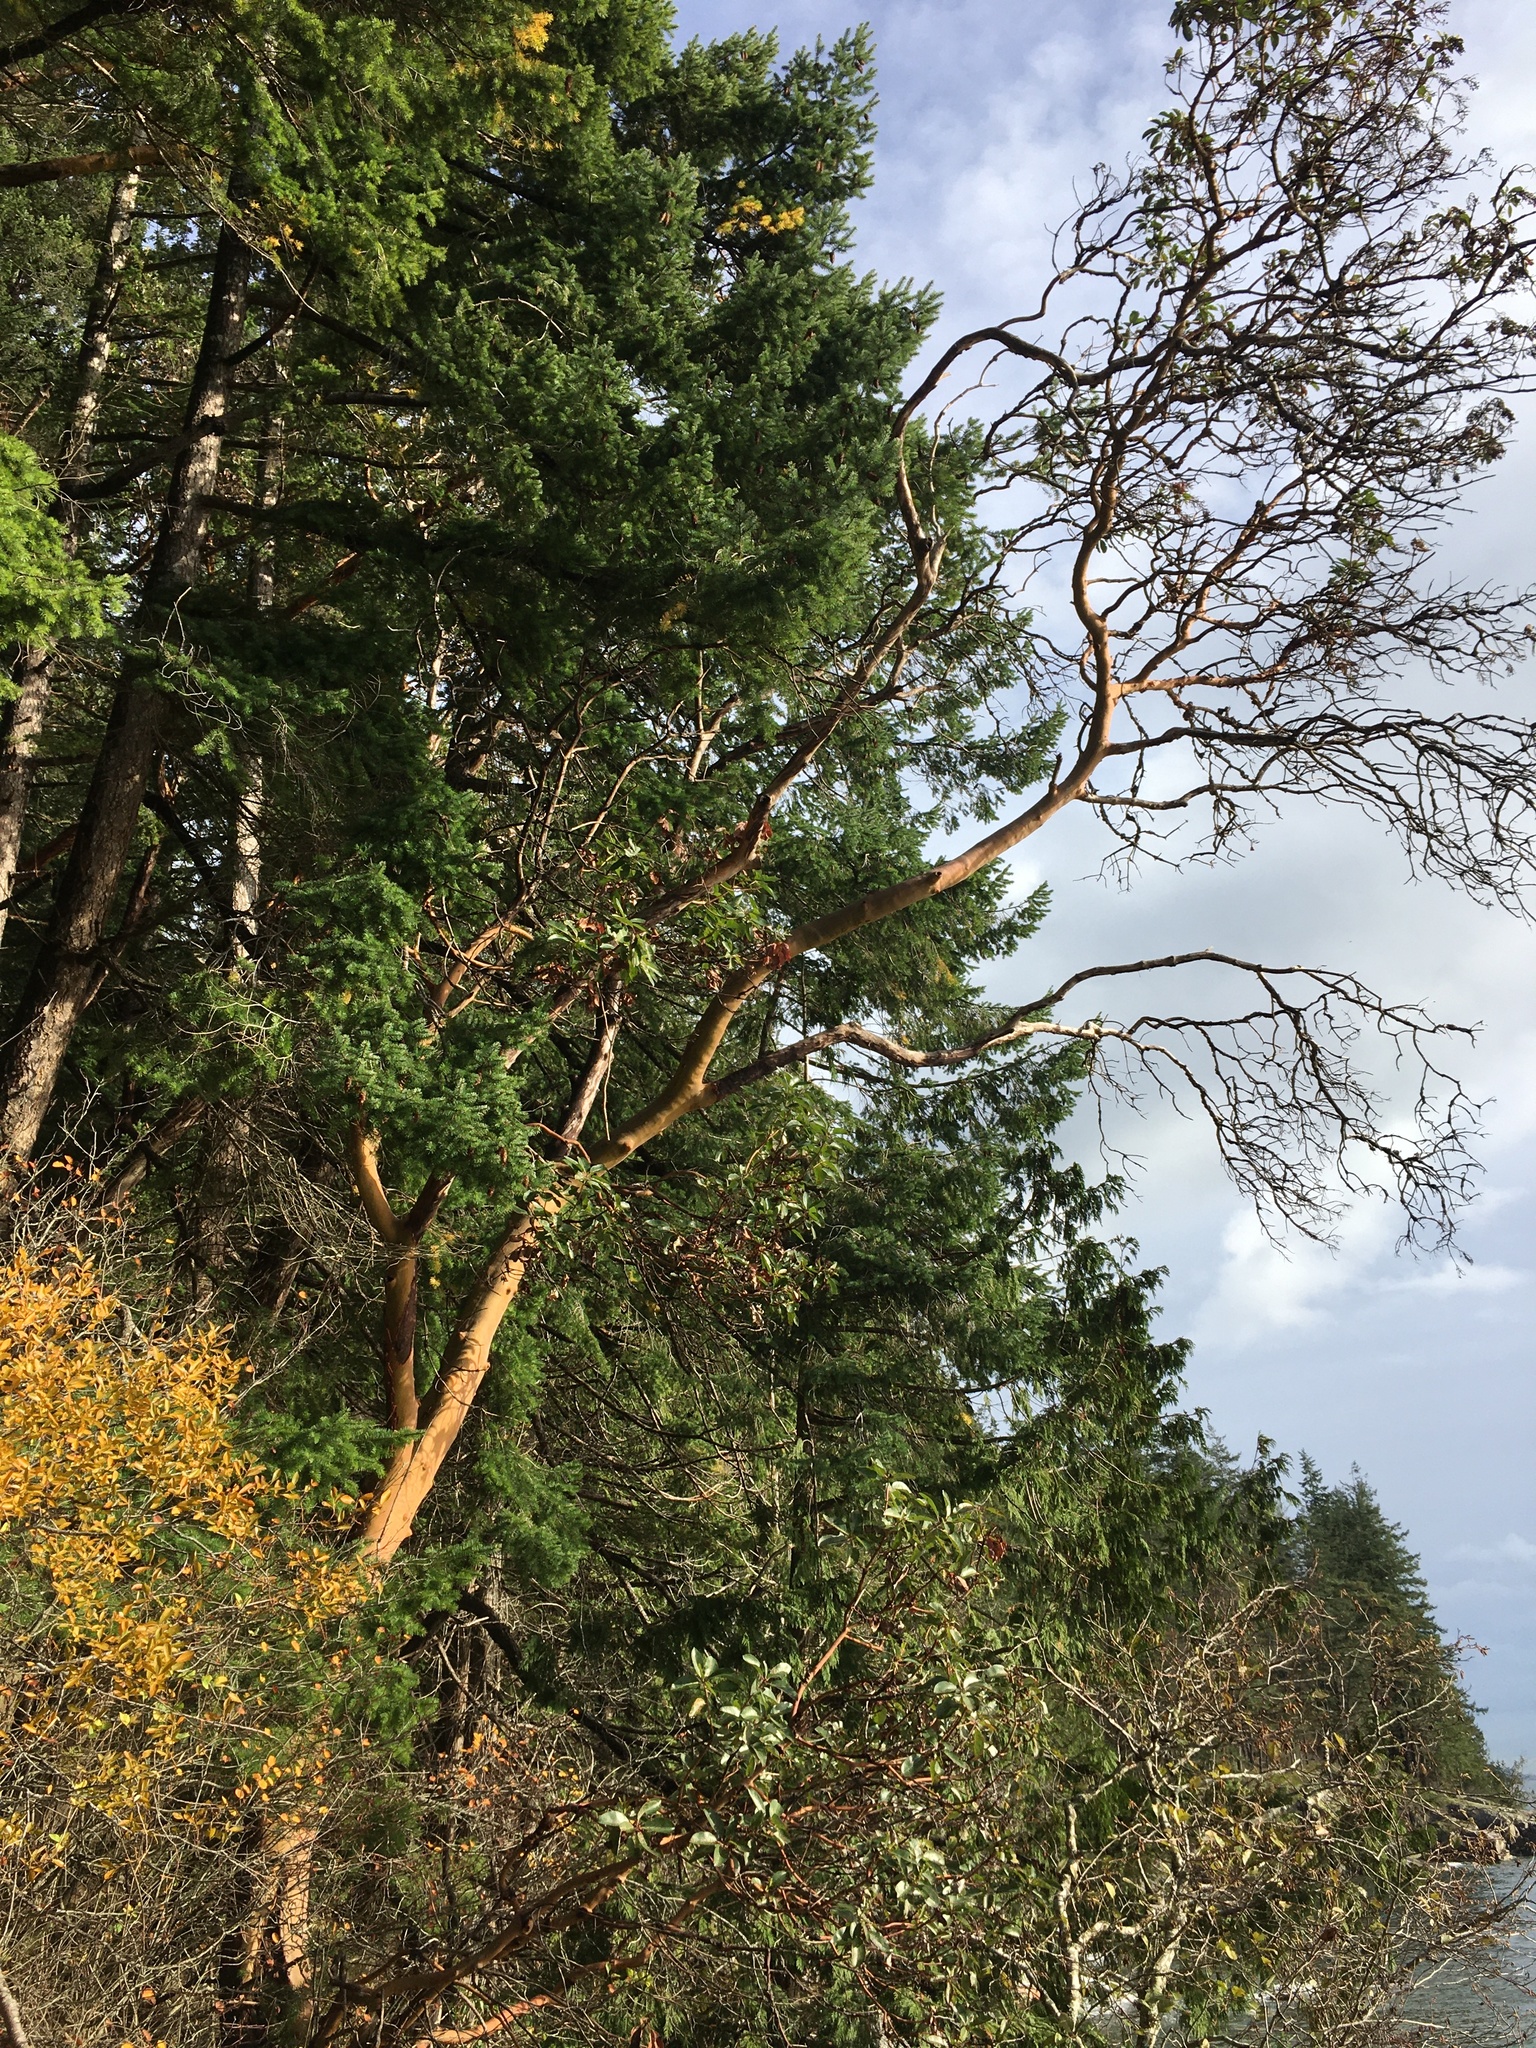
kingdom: Plantae
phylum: Tracheophyta
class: Magnoliopsida
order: Ericales
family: Ericaceae
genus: Arbutus
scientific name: Arbutus menziesii
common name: Pacific madrone
